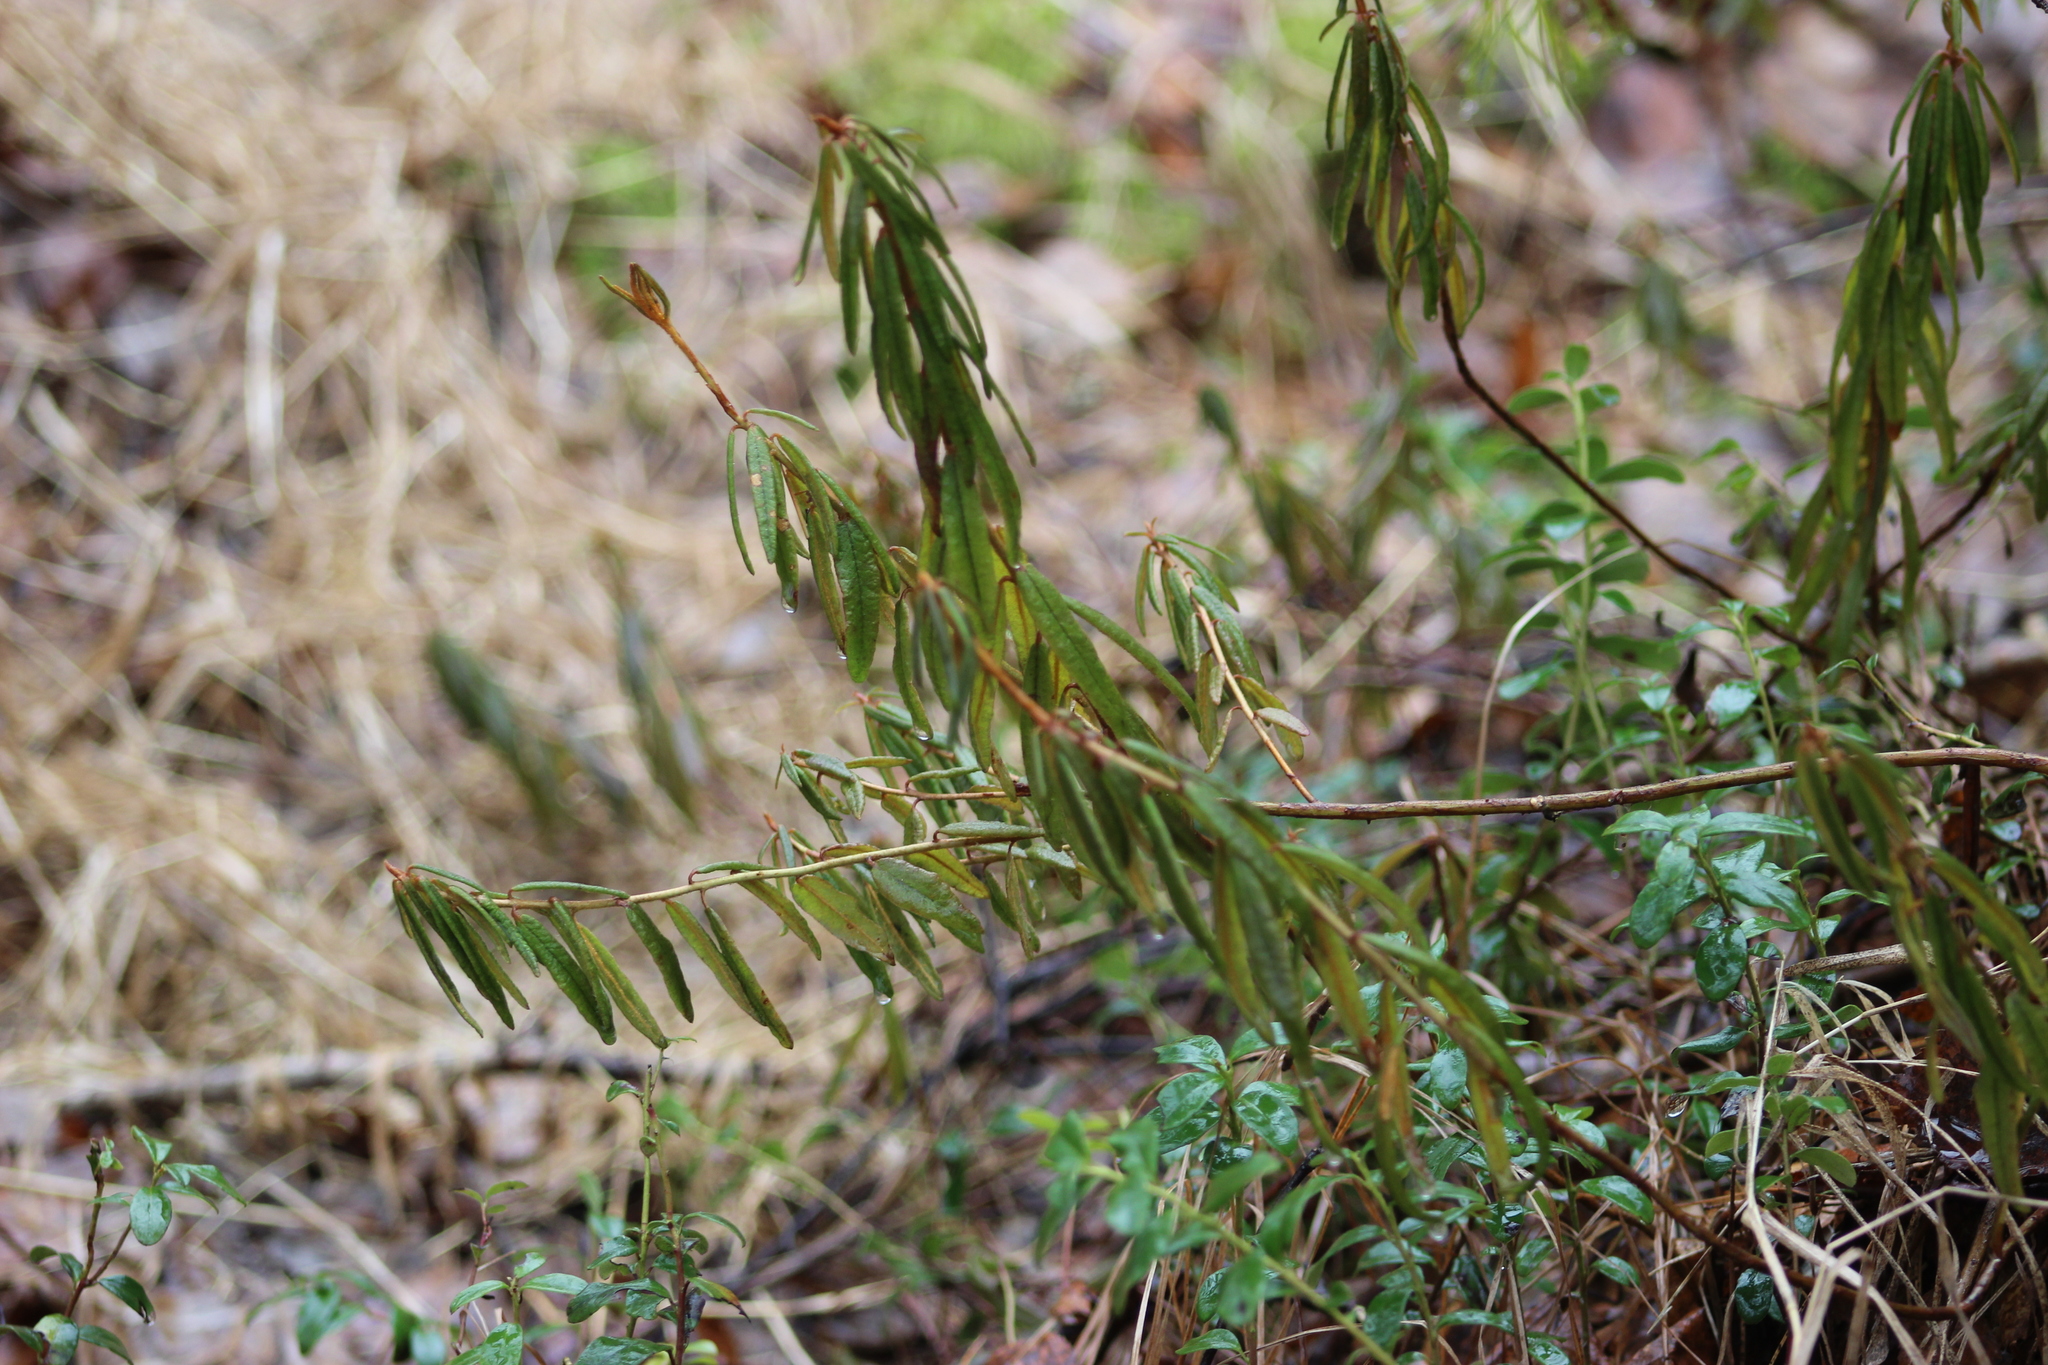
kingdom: Plantae
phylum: Tracheophyta
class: Magnoliopsida
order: Ericales
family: Ericaceae
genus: Rhododendron
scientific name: Rhododendron tomentosum
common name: Marsh labrador tea
